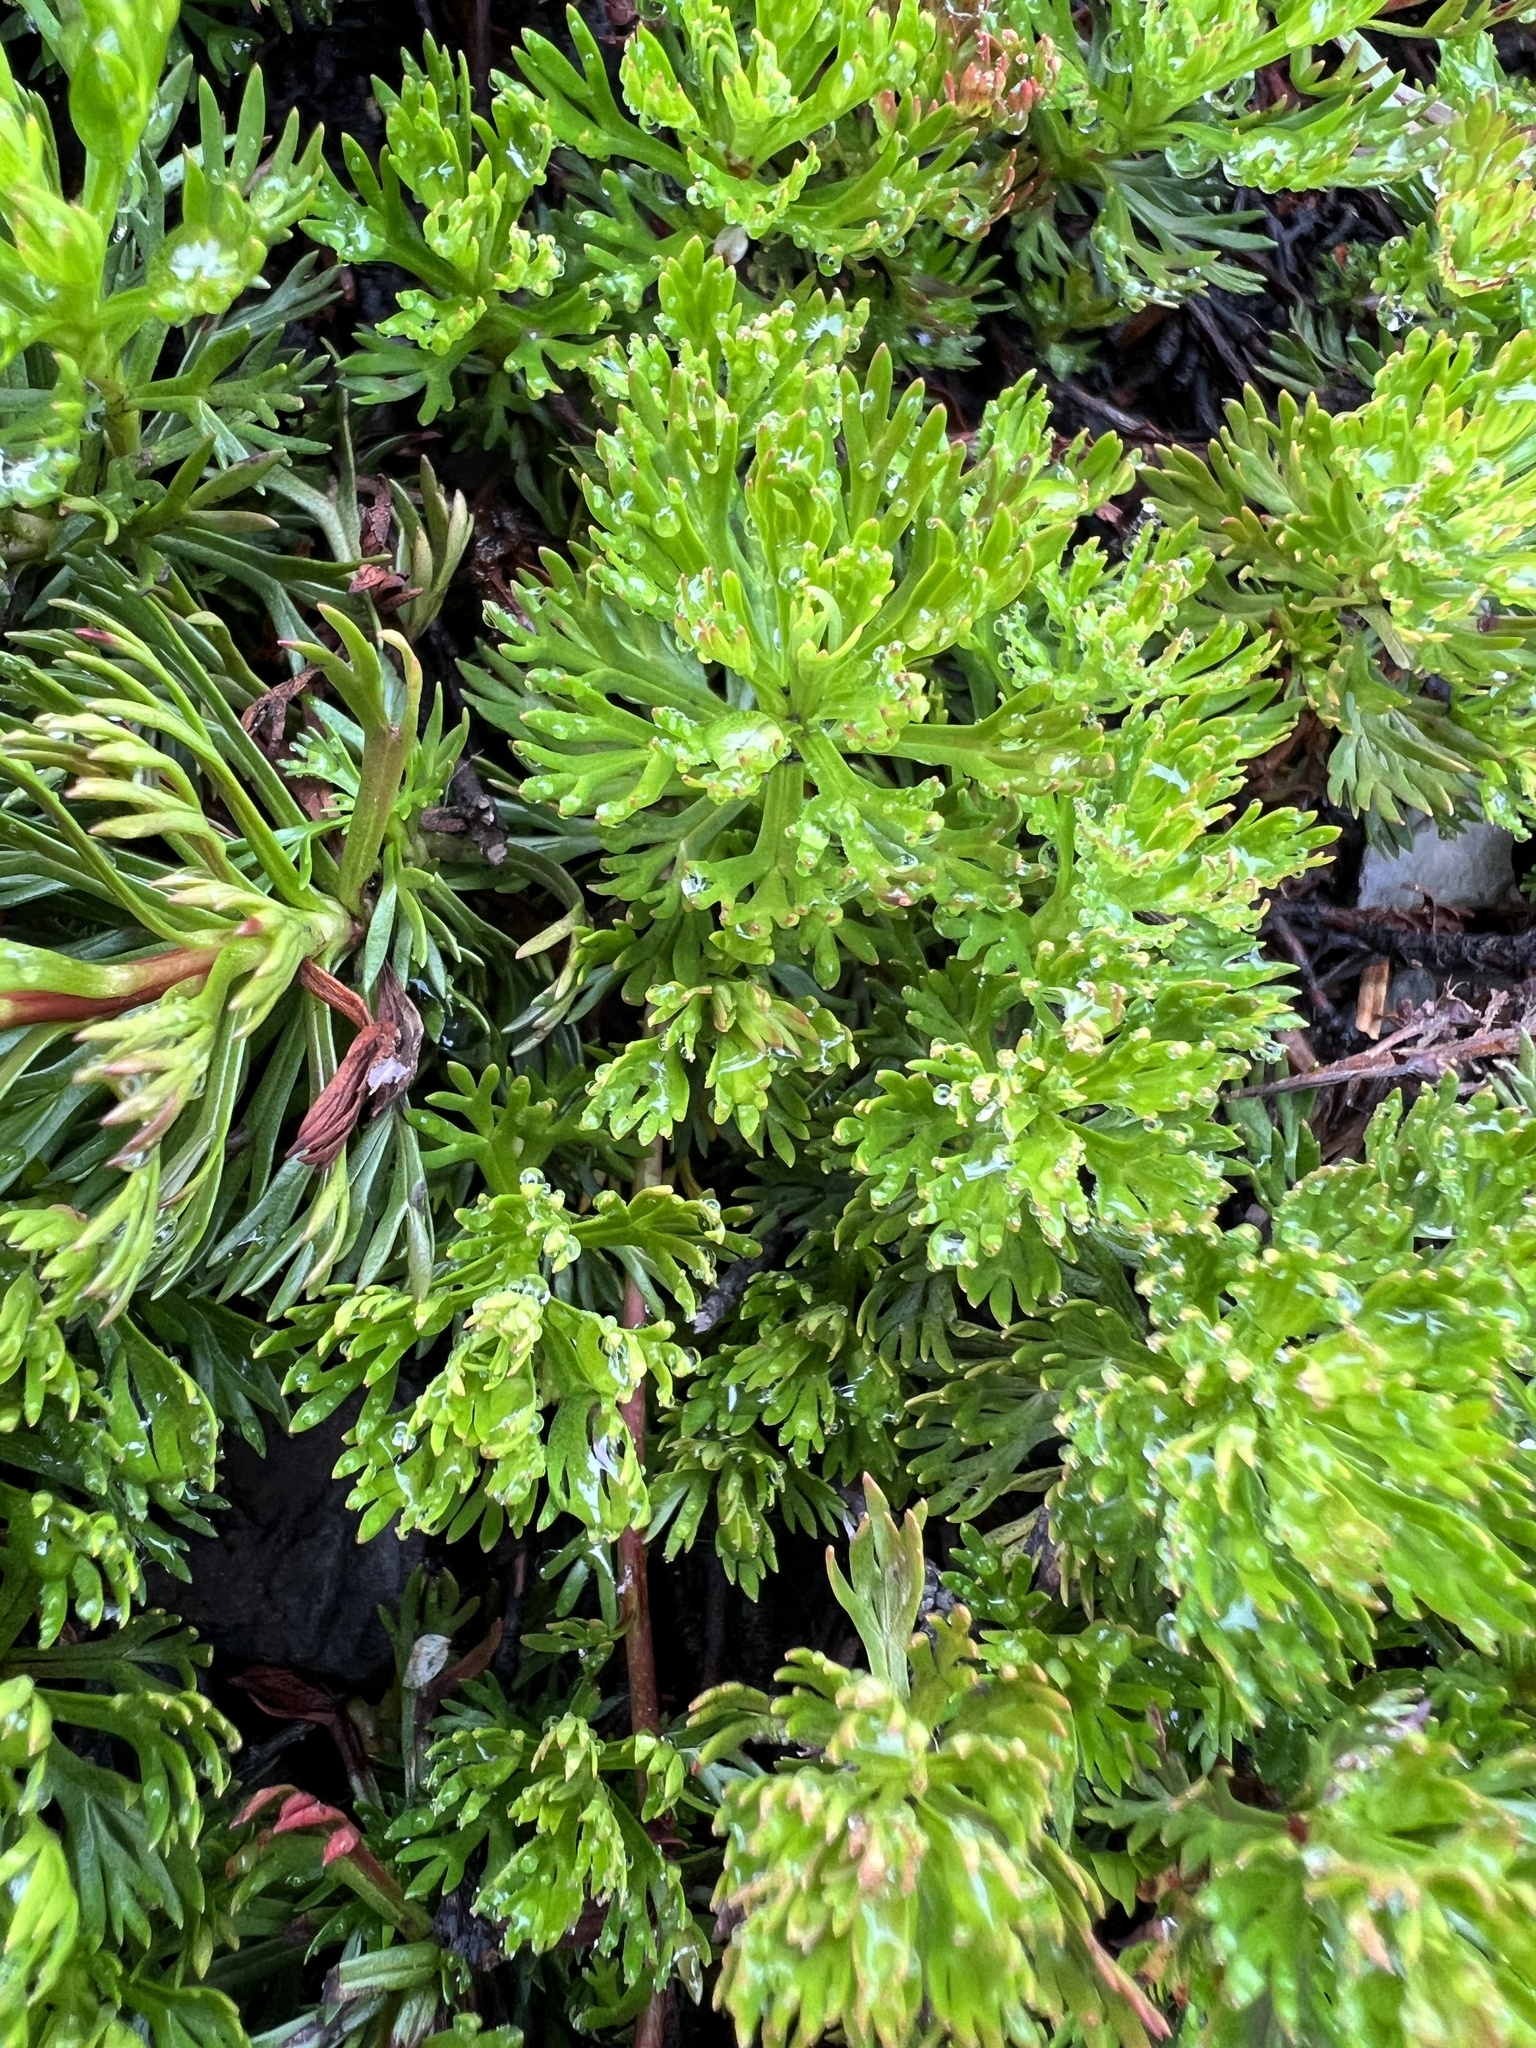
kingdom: Plantae
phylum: Tracheophyta
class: Magnoliopsida
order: Rosales
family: Rosaceae
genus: Luetkea
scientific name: Luetkea pectinata
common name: Partridgefoot
